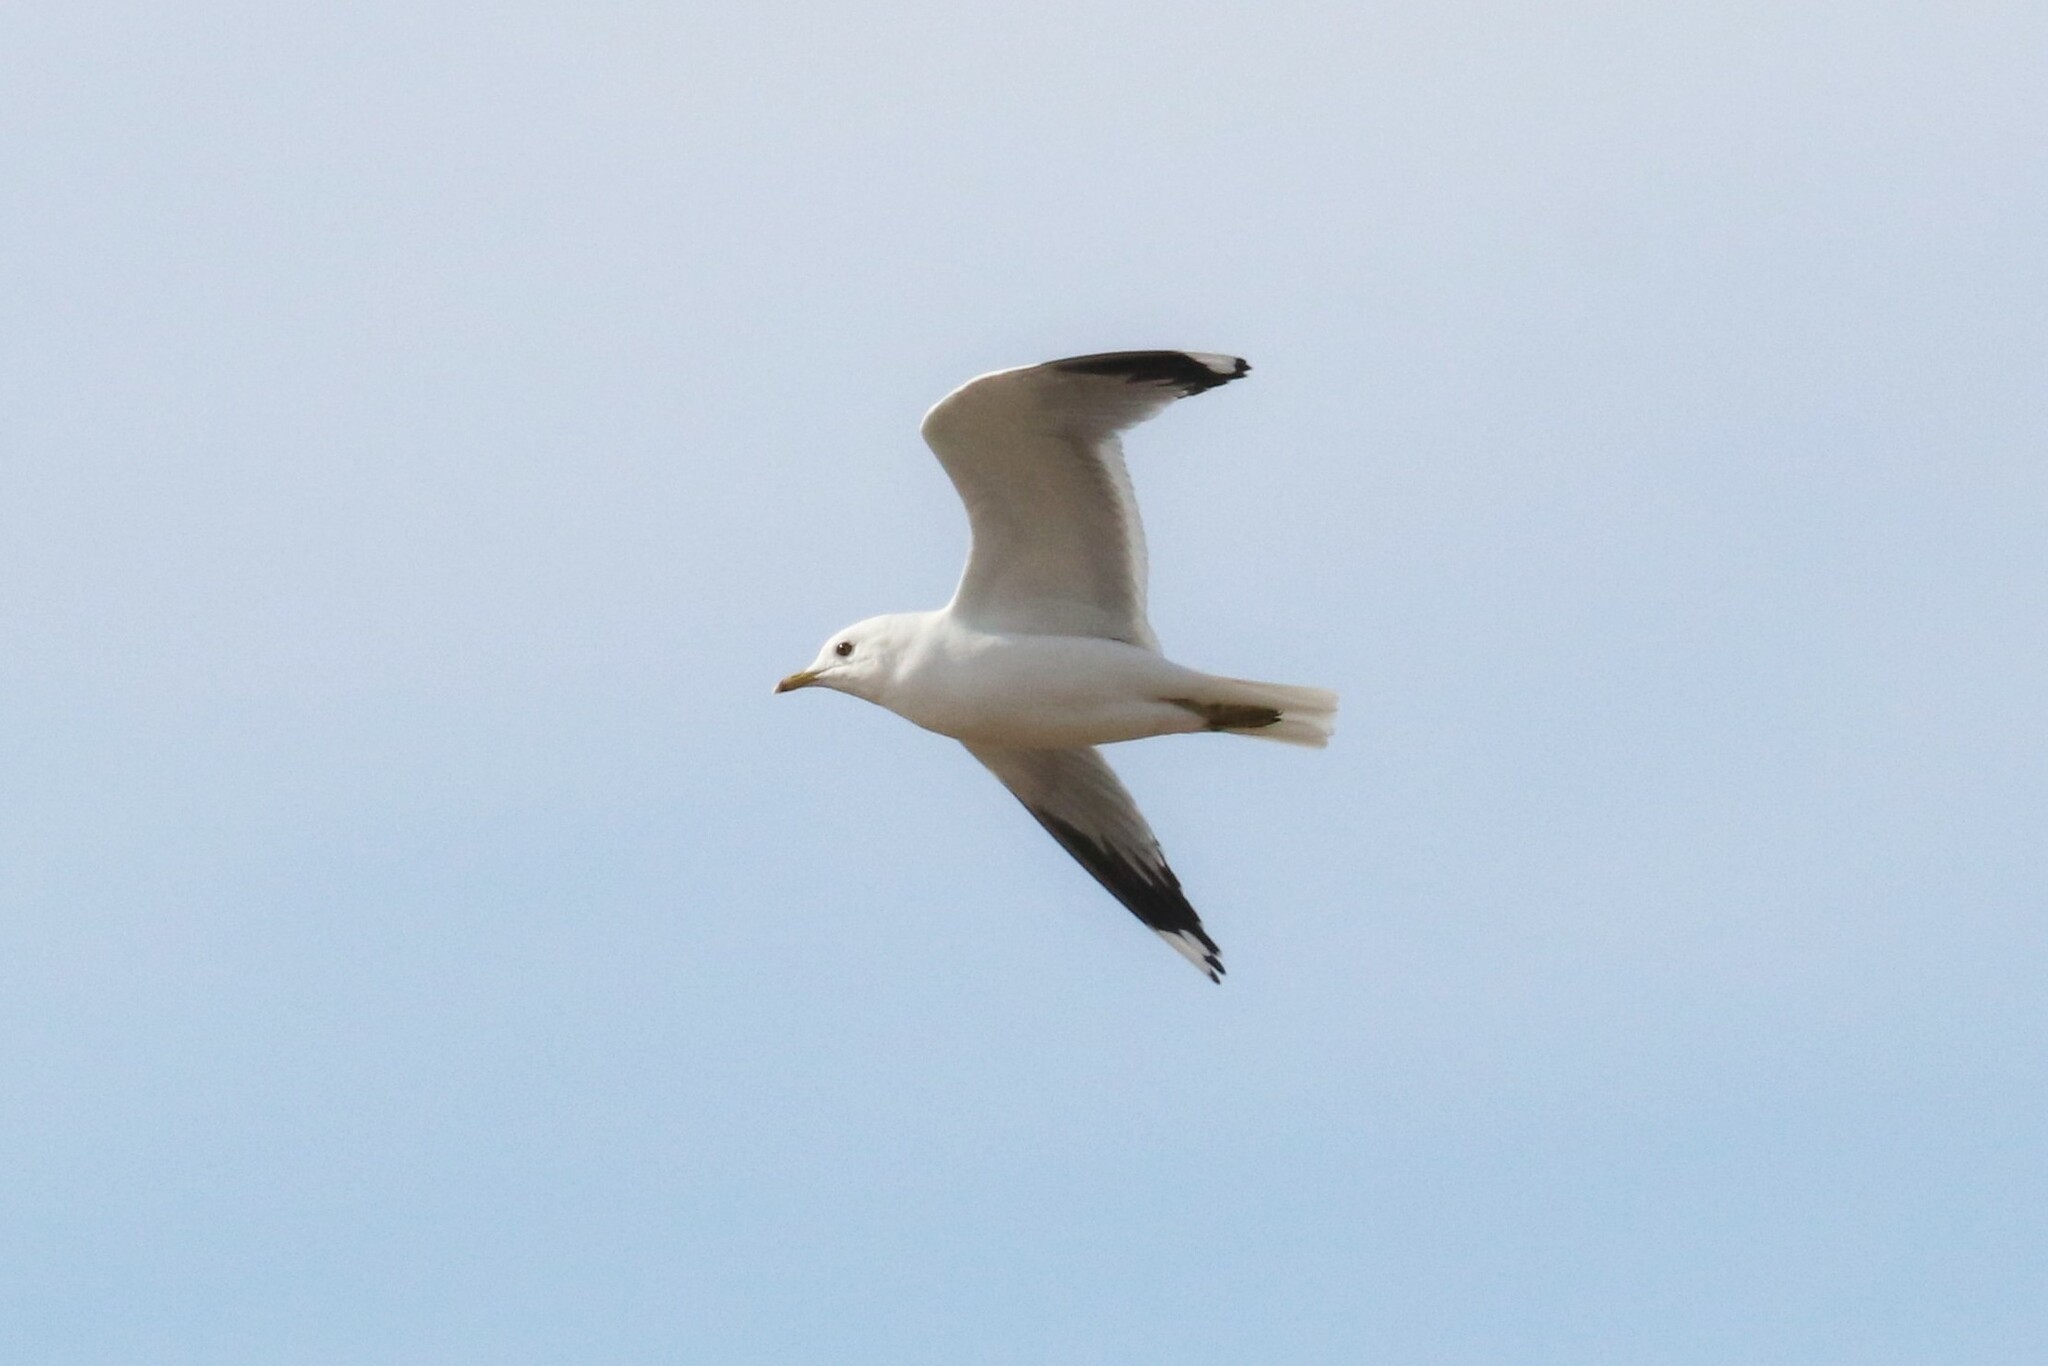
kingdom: Animalia
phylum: Chordata
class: Aves
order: Charadriiformes
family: Laridae
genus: Larus
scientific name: Larus canus
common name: Mew gull
